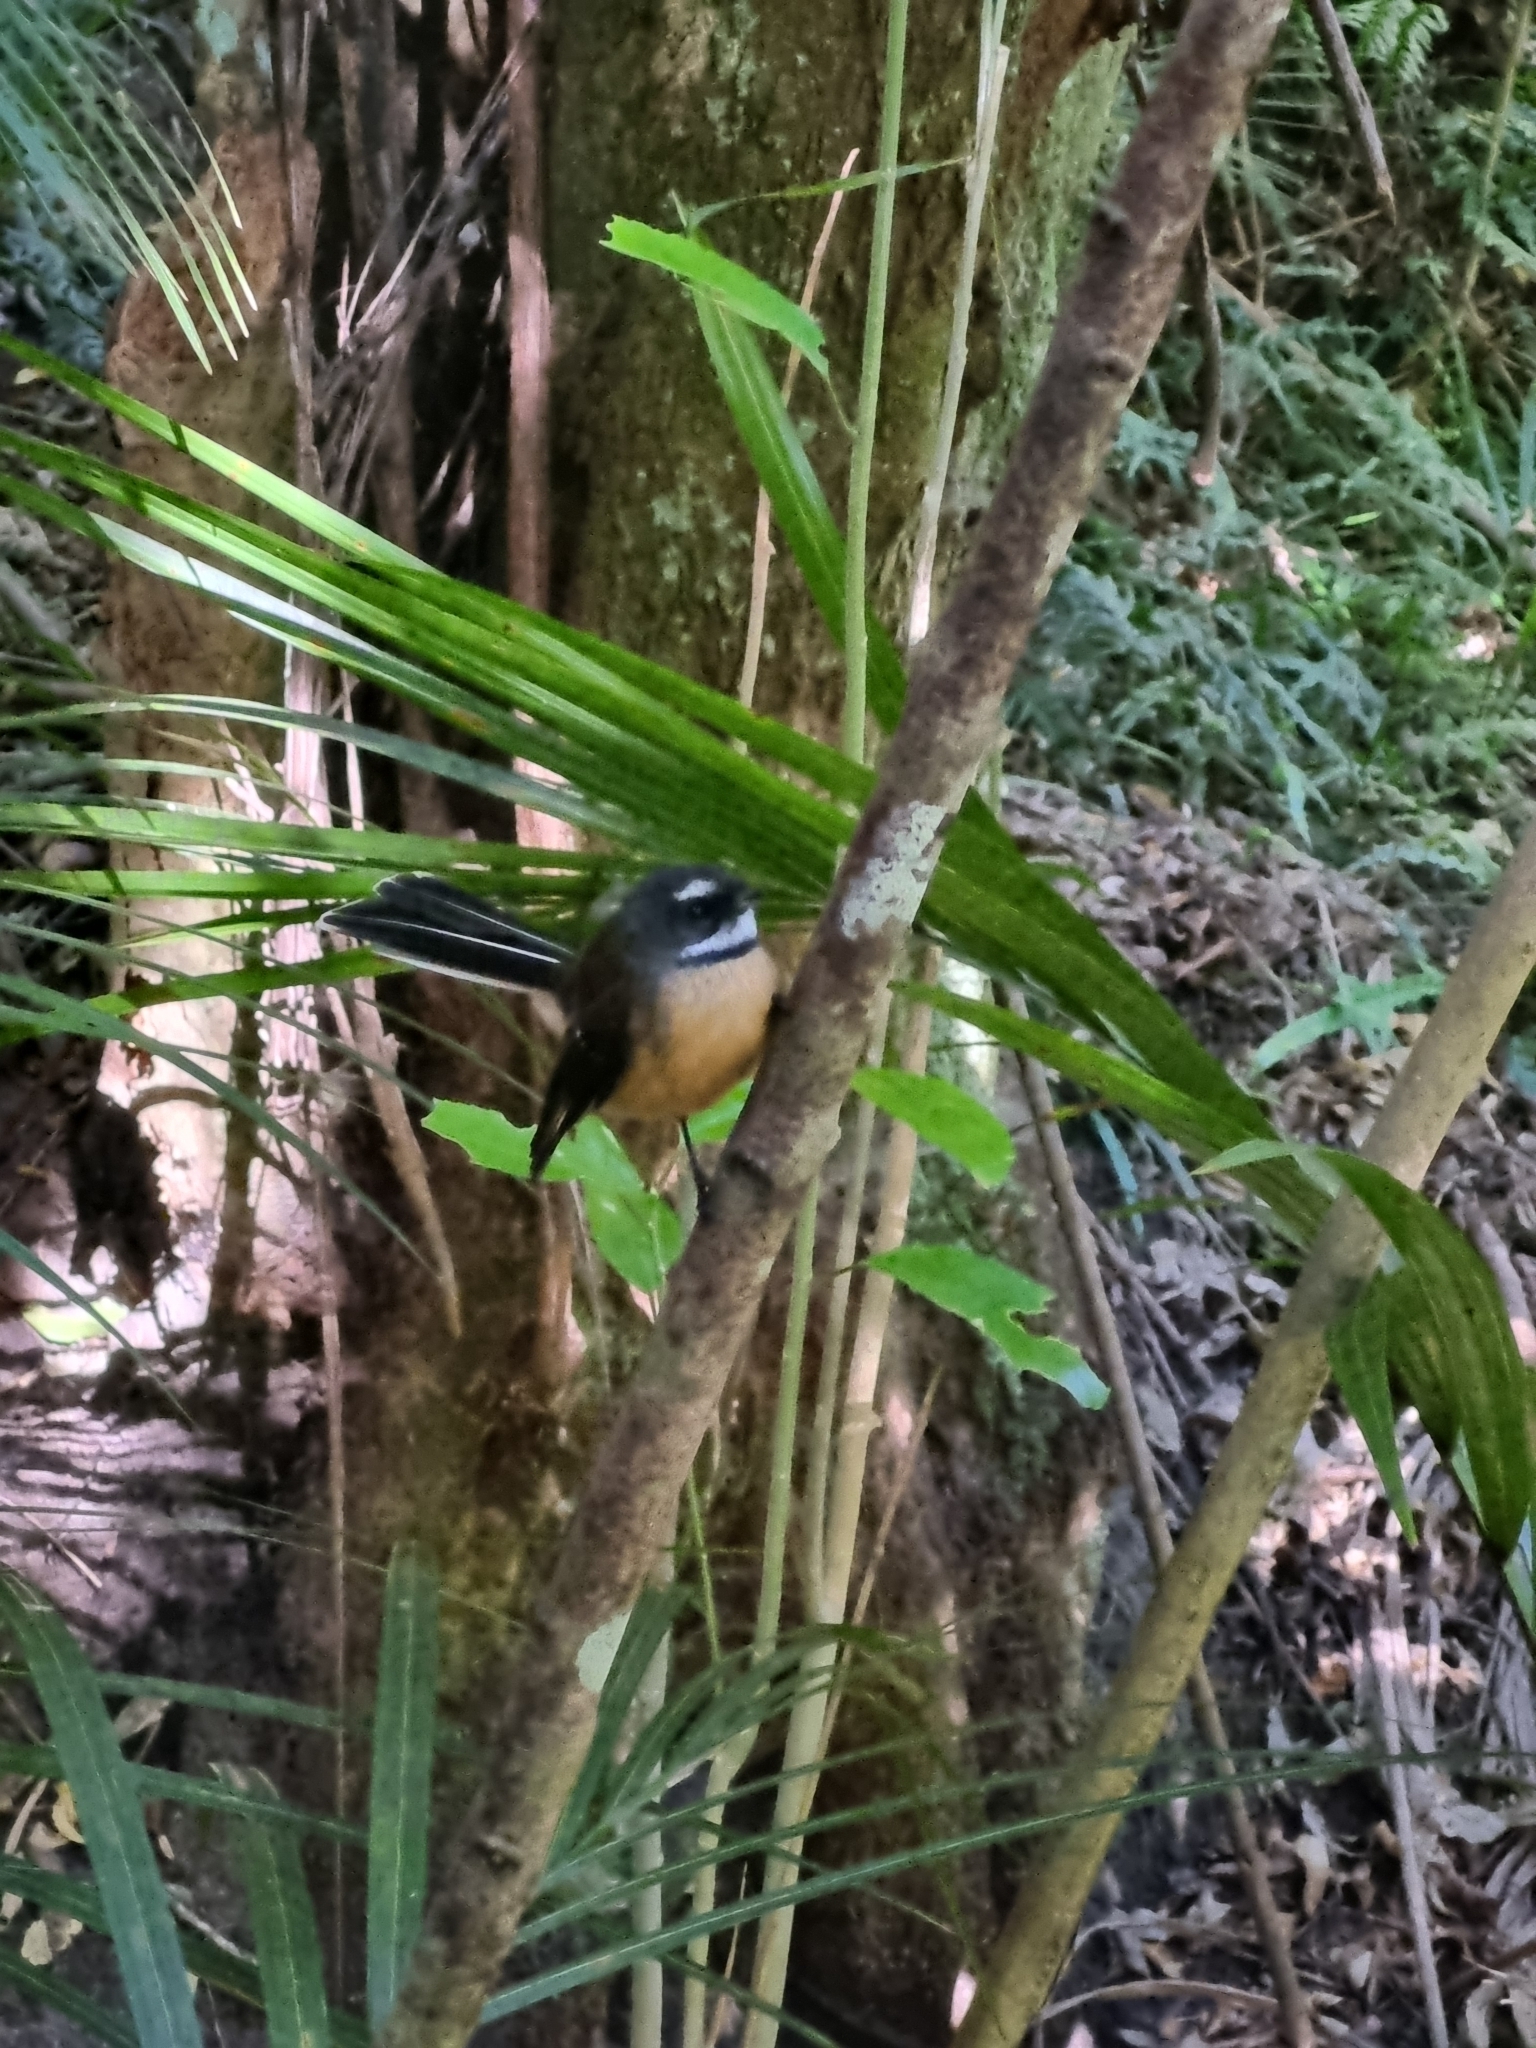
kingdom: Animalia
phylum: Chordata
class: Aves
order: Passeriformes
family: Rhipiduridae
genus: Rhipidura
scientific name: Rhipidura fuliginosa
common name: New zealand fantail
